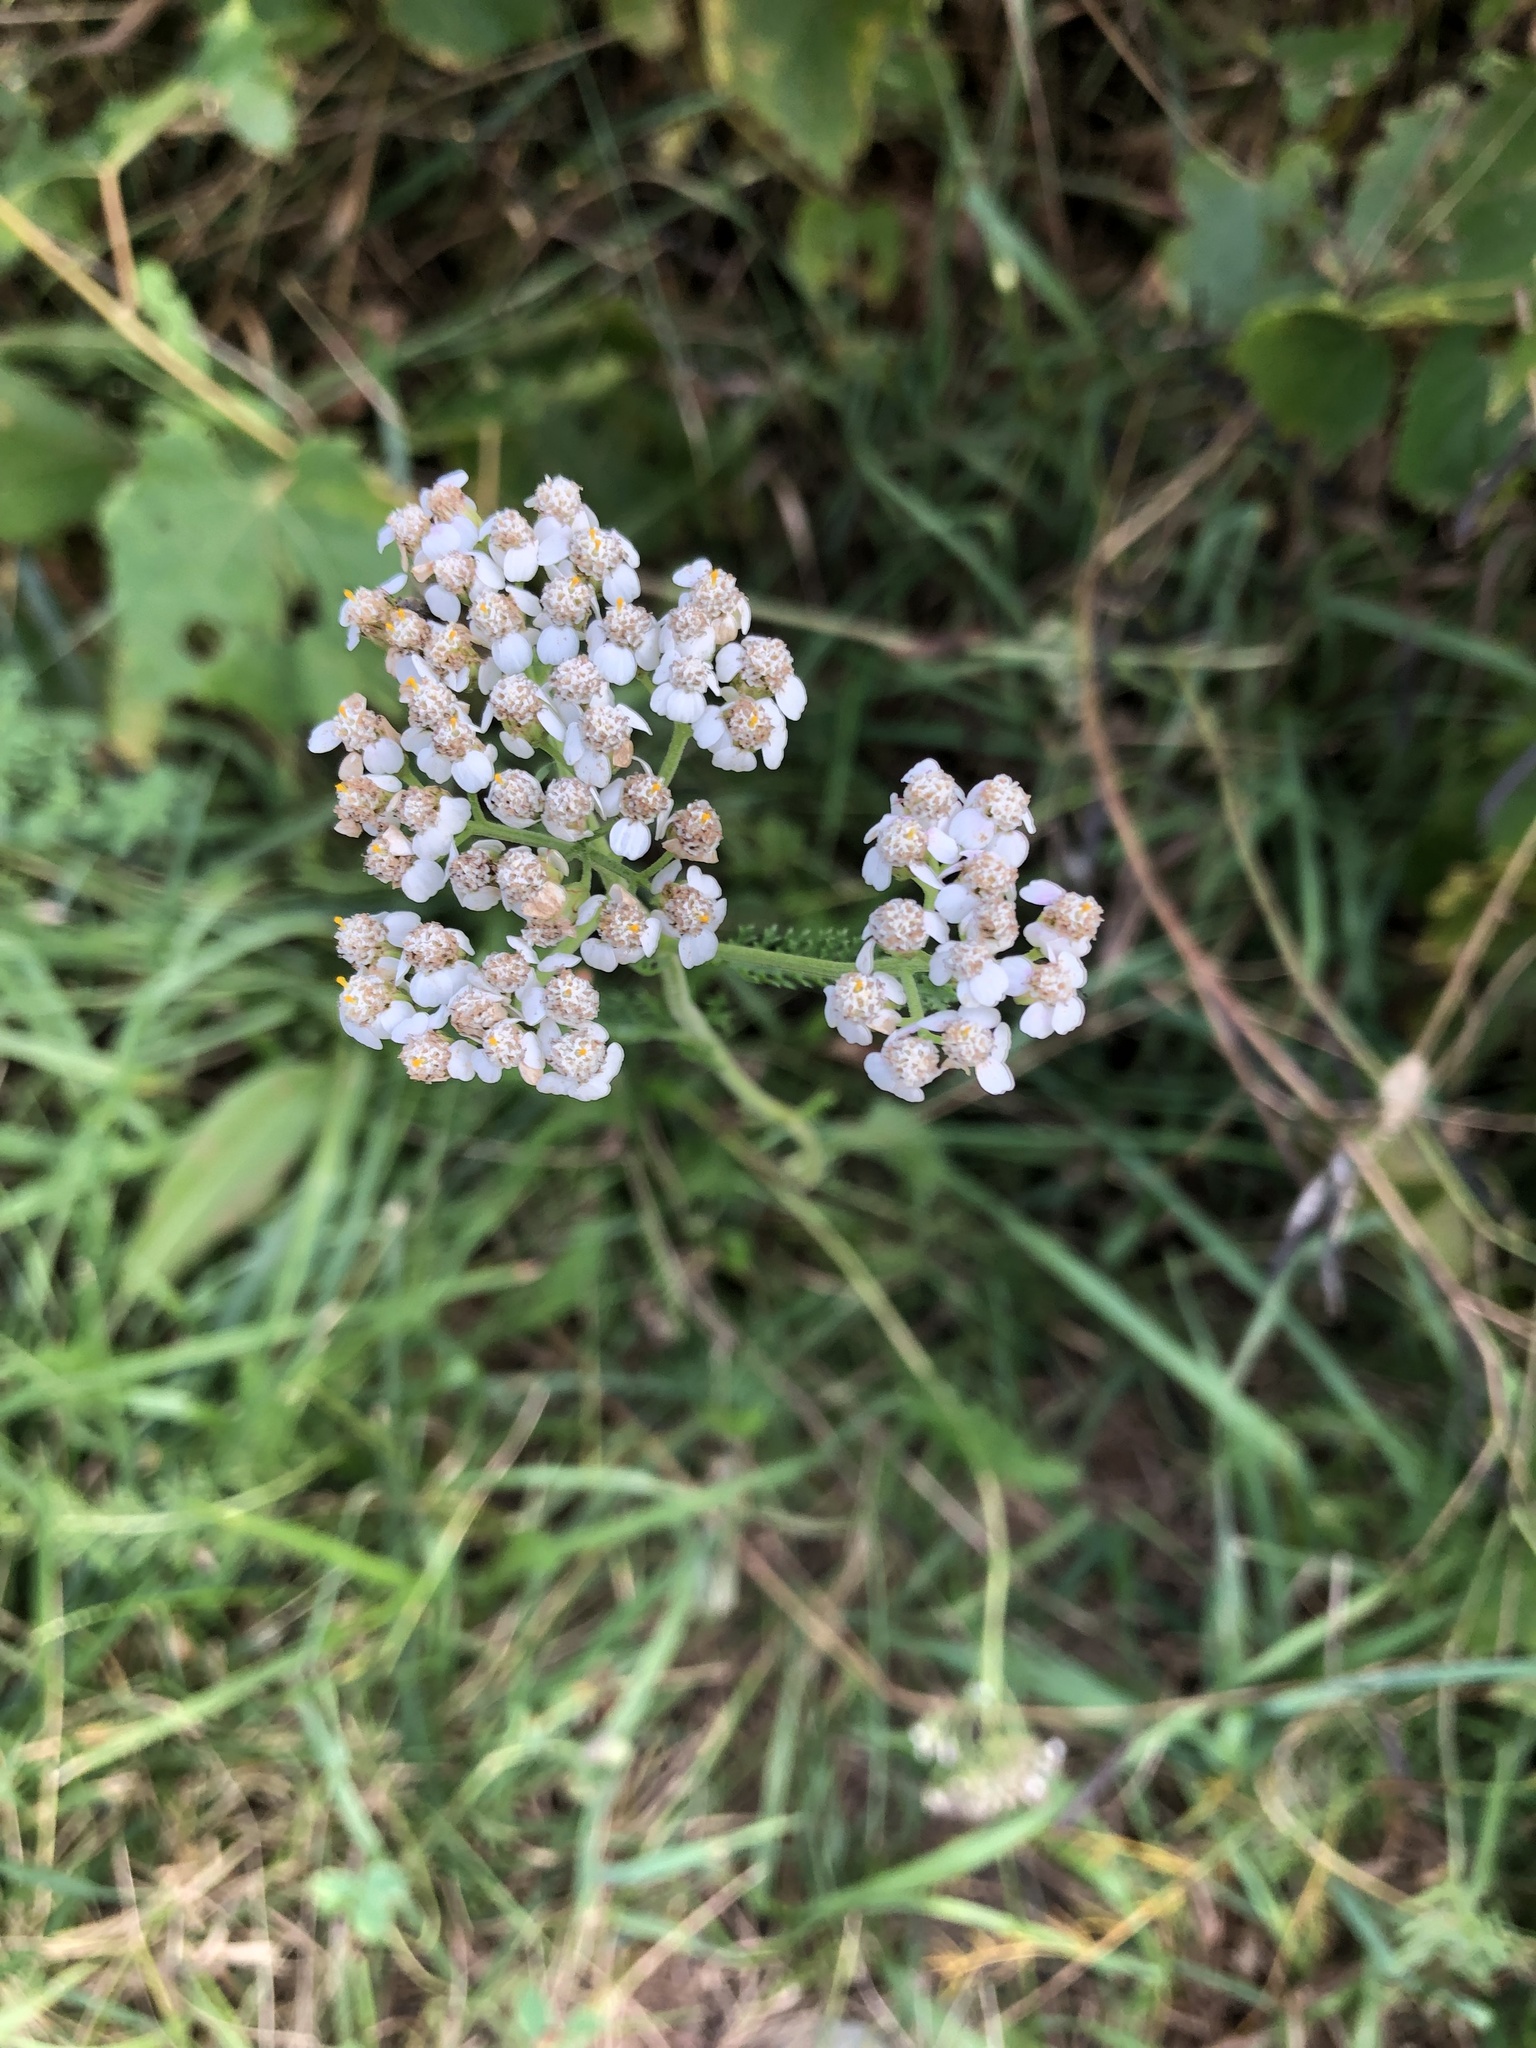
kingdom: Plantae
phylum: Tracheophyta
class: Magnoliopsida
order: Asterales
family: Asteraceae
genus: Achillea
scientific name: Achillea millefolium
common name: Yarrow
